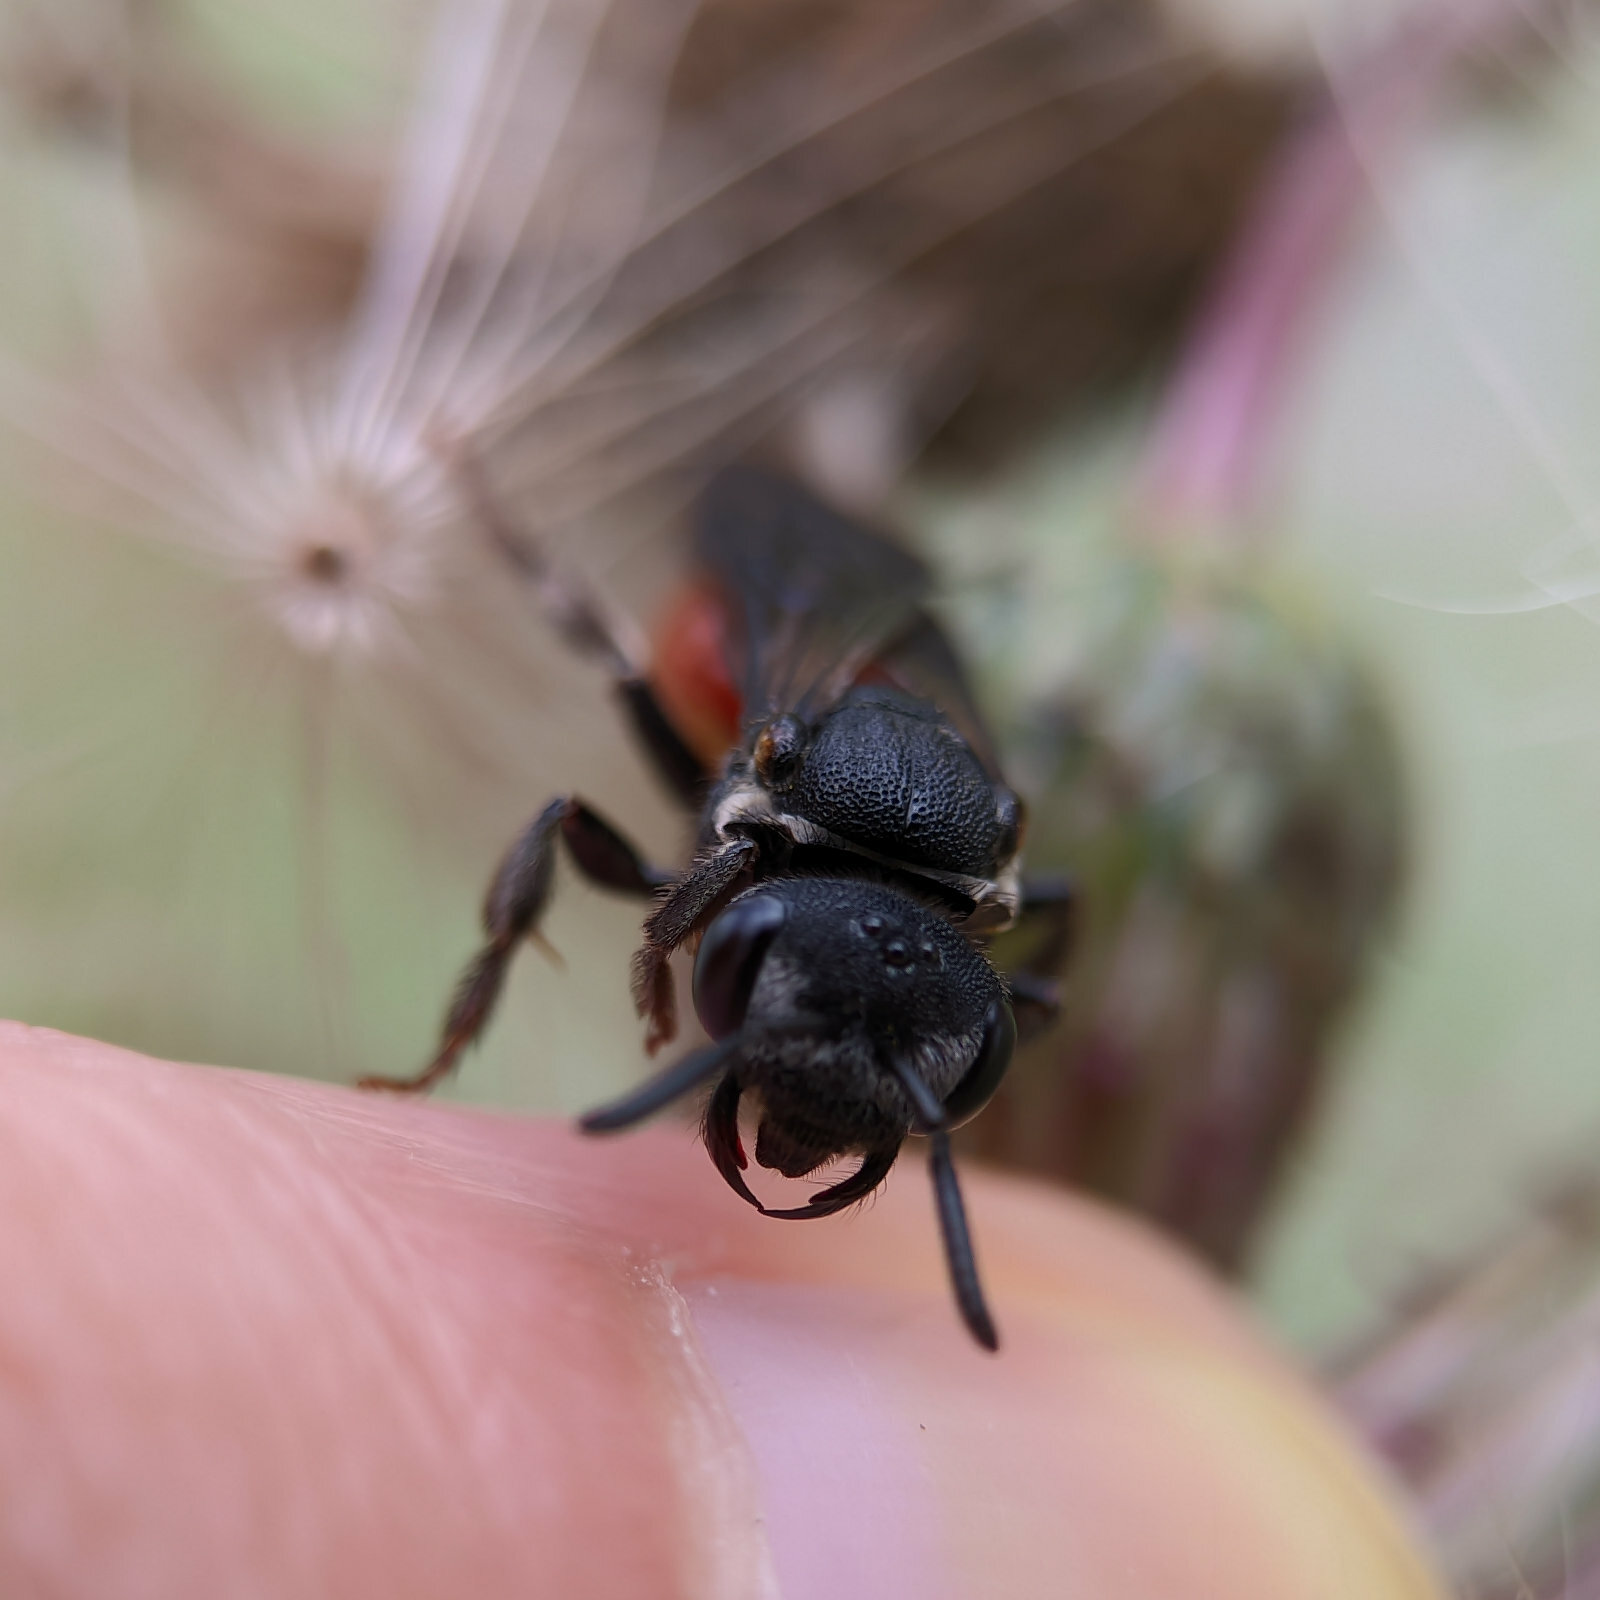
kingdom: Animalia
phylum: Arthropoda
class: Insecta
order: Hymenoptera
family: Halictidae
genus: Sphecodes
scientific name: Sphecodes albilabris
